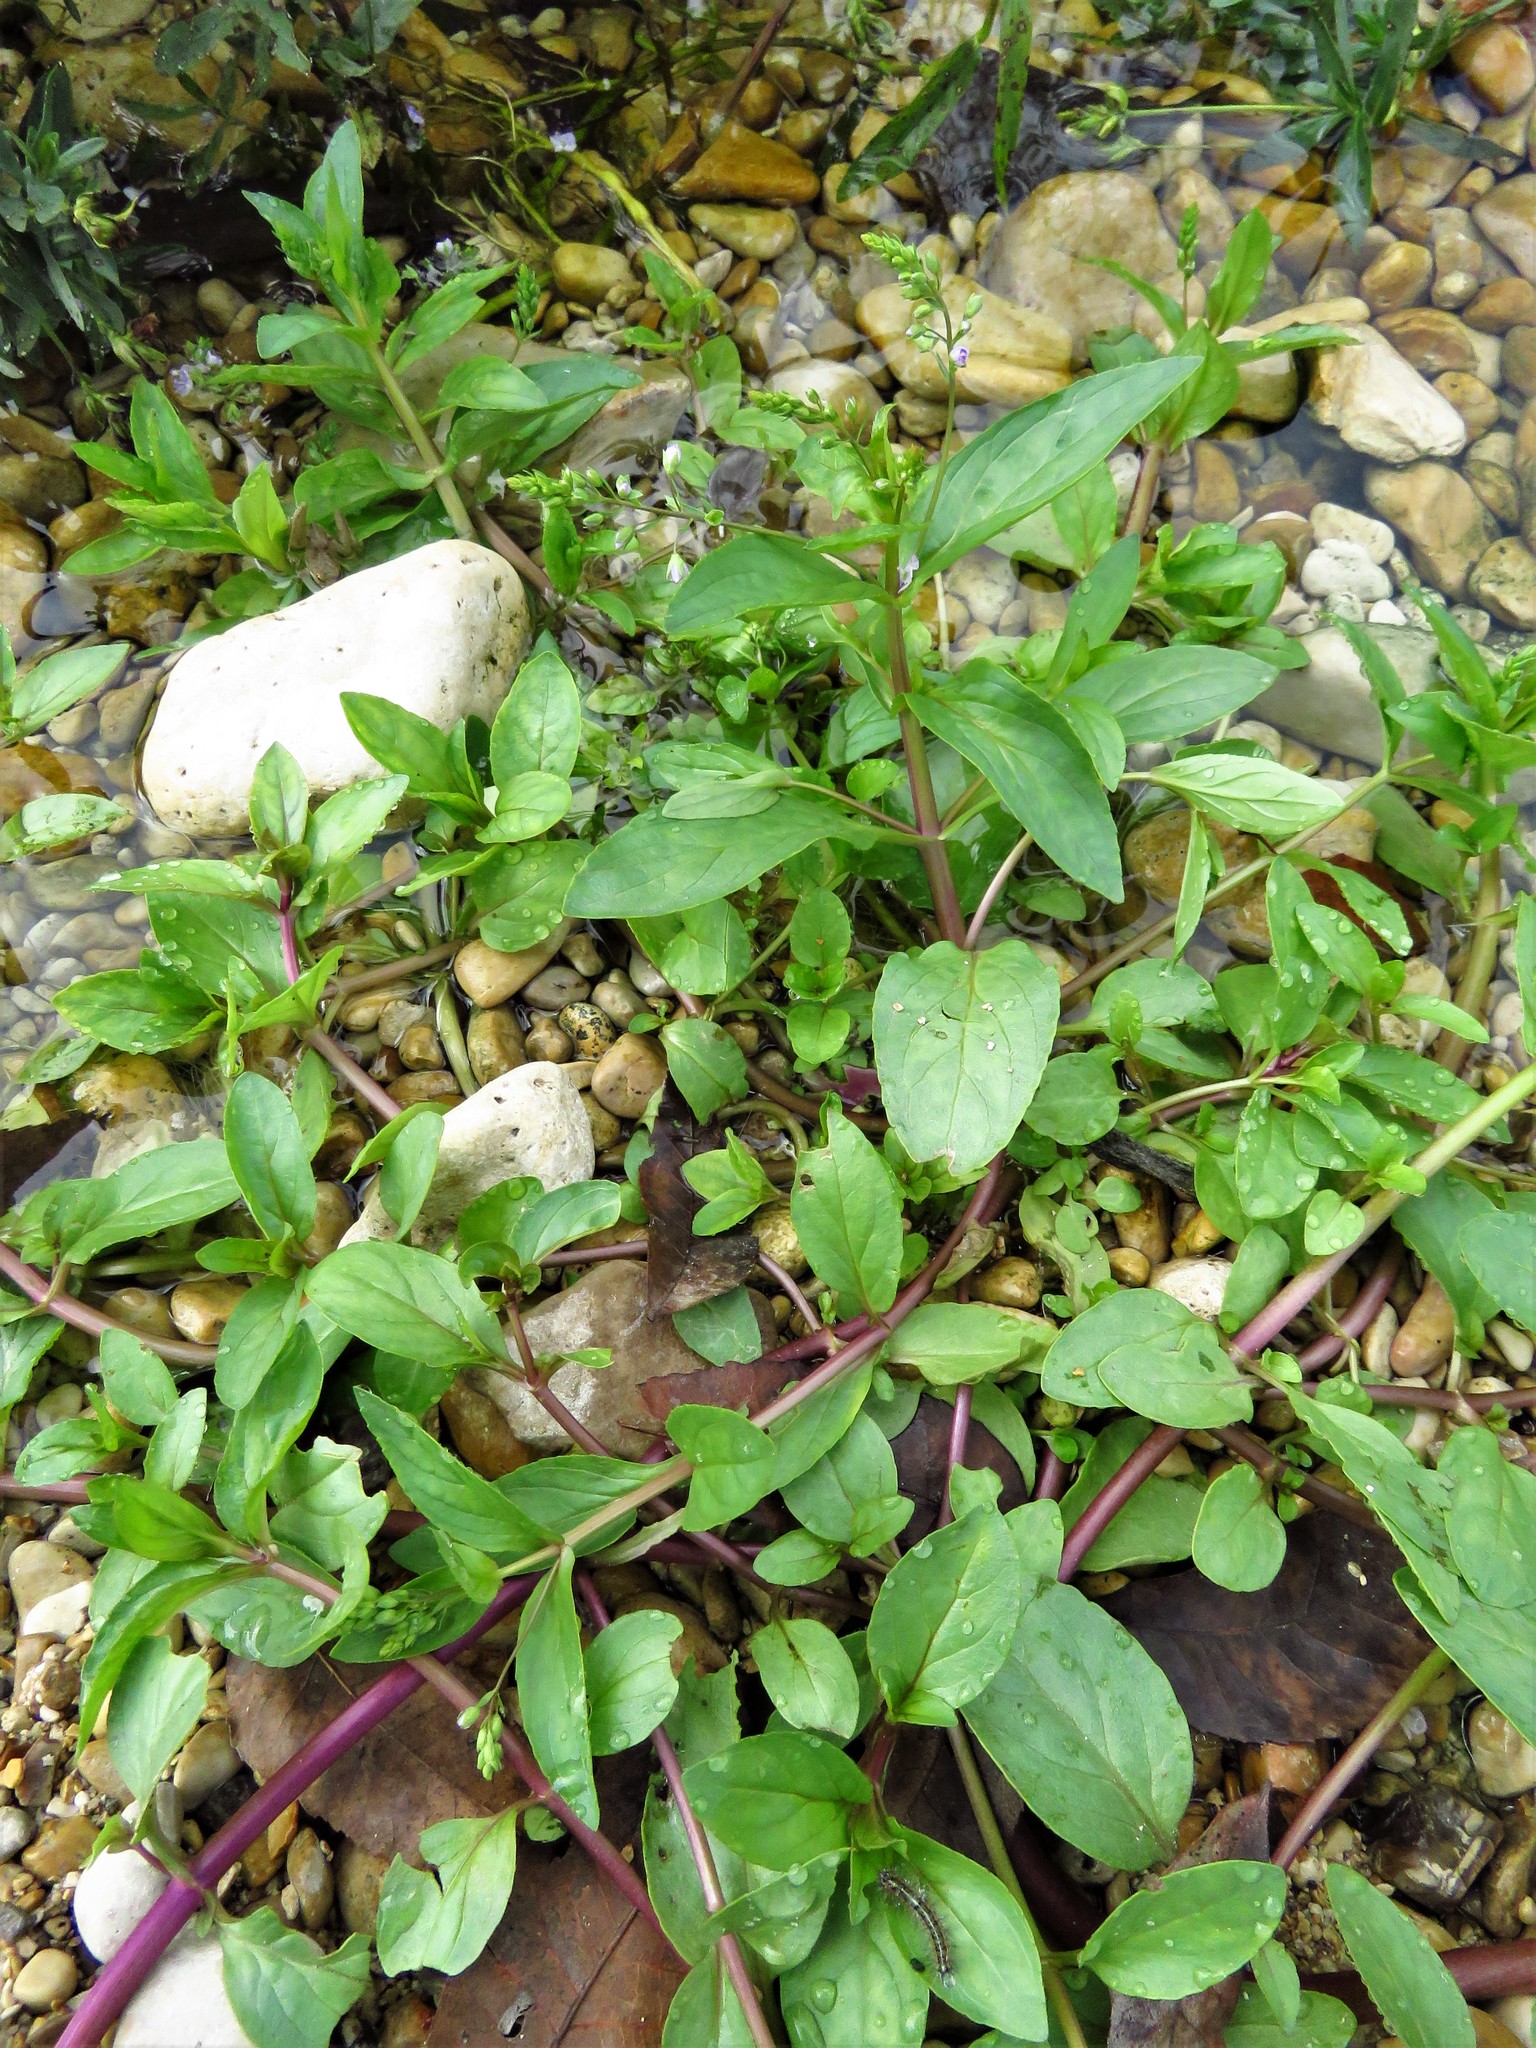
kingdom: Plantae
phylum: Tracheophyta
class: Magnoliopsida
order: Lamiales
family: Plantaginaceae
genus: Veronica
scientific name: Veronica anagallis-aquatica
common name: Water speedwell
